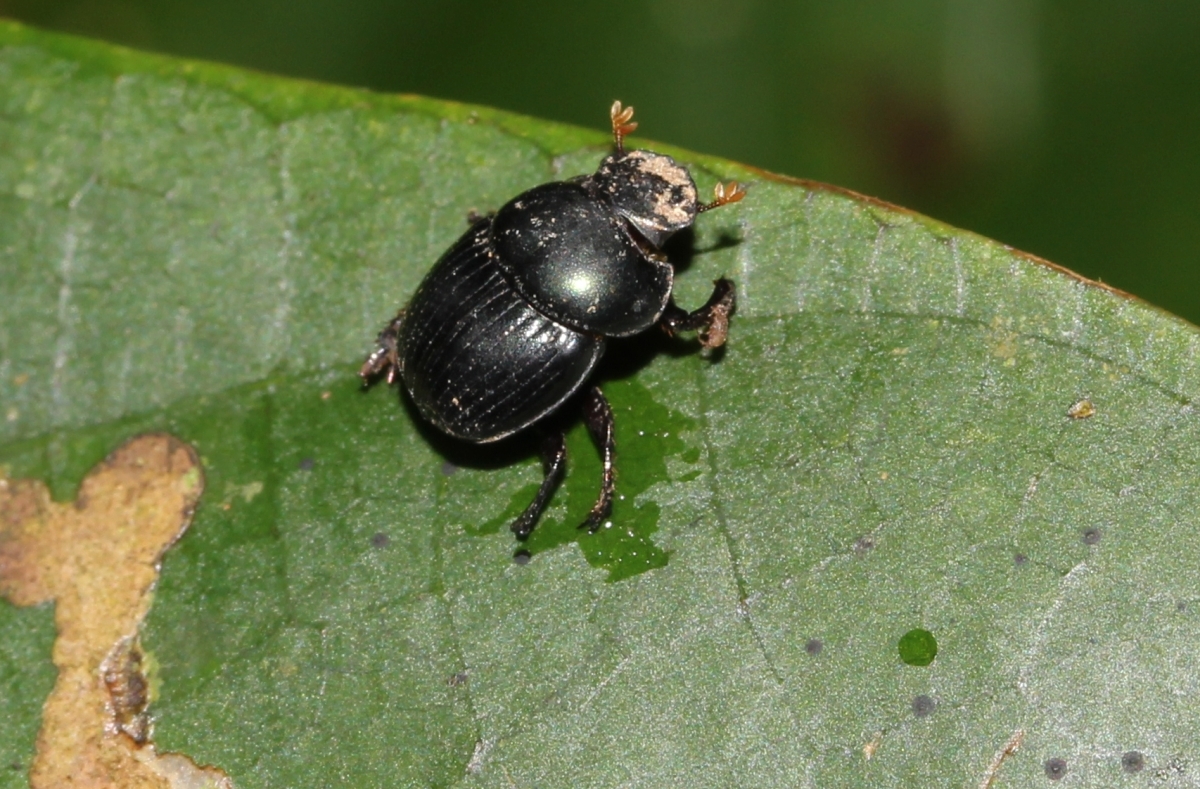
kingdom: Animalia
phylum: Arthropoda
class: Insecta
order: Coleoptera
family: Scarabaeidae
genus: Canthidium
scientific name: Canthidium
